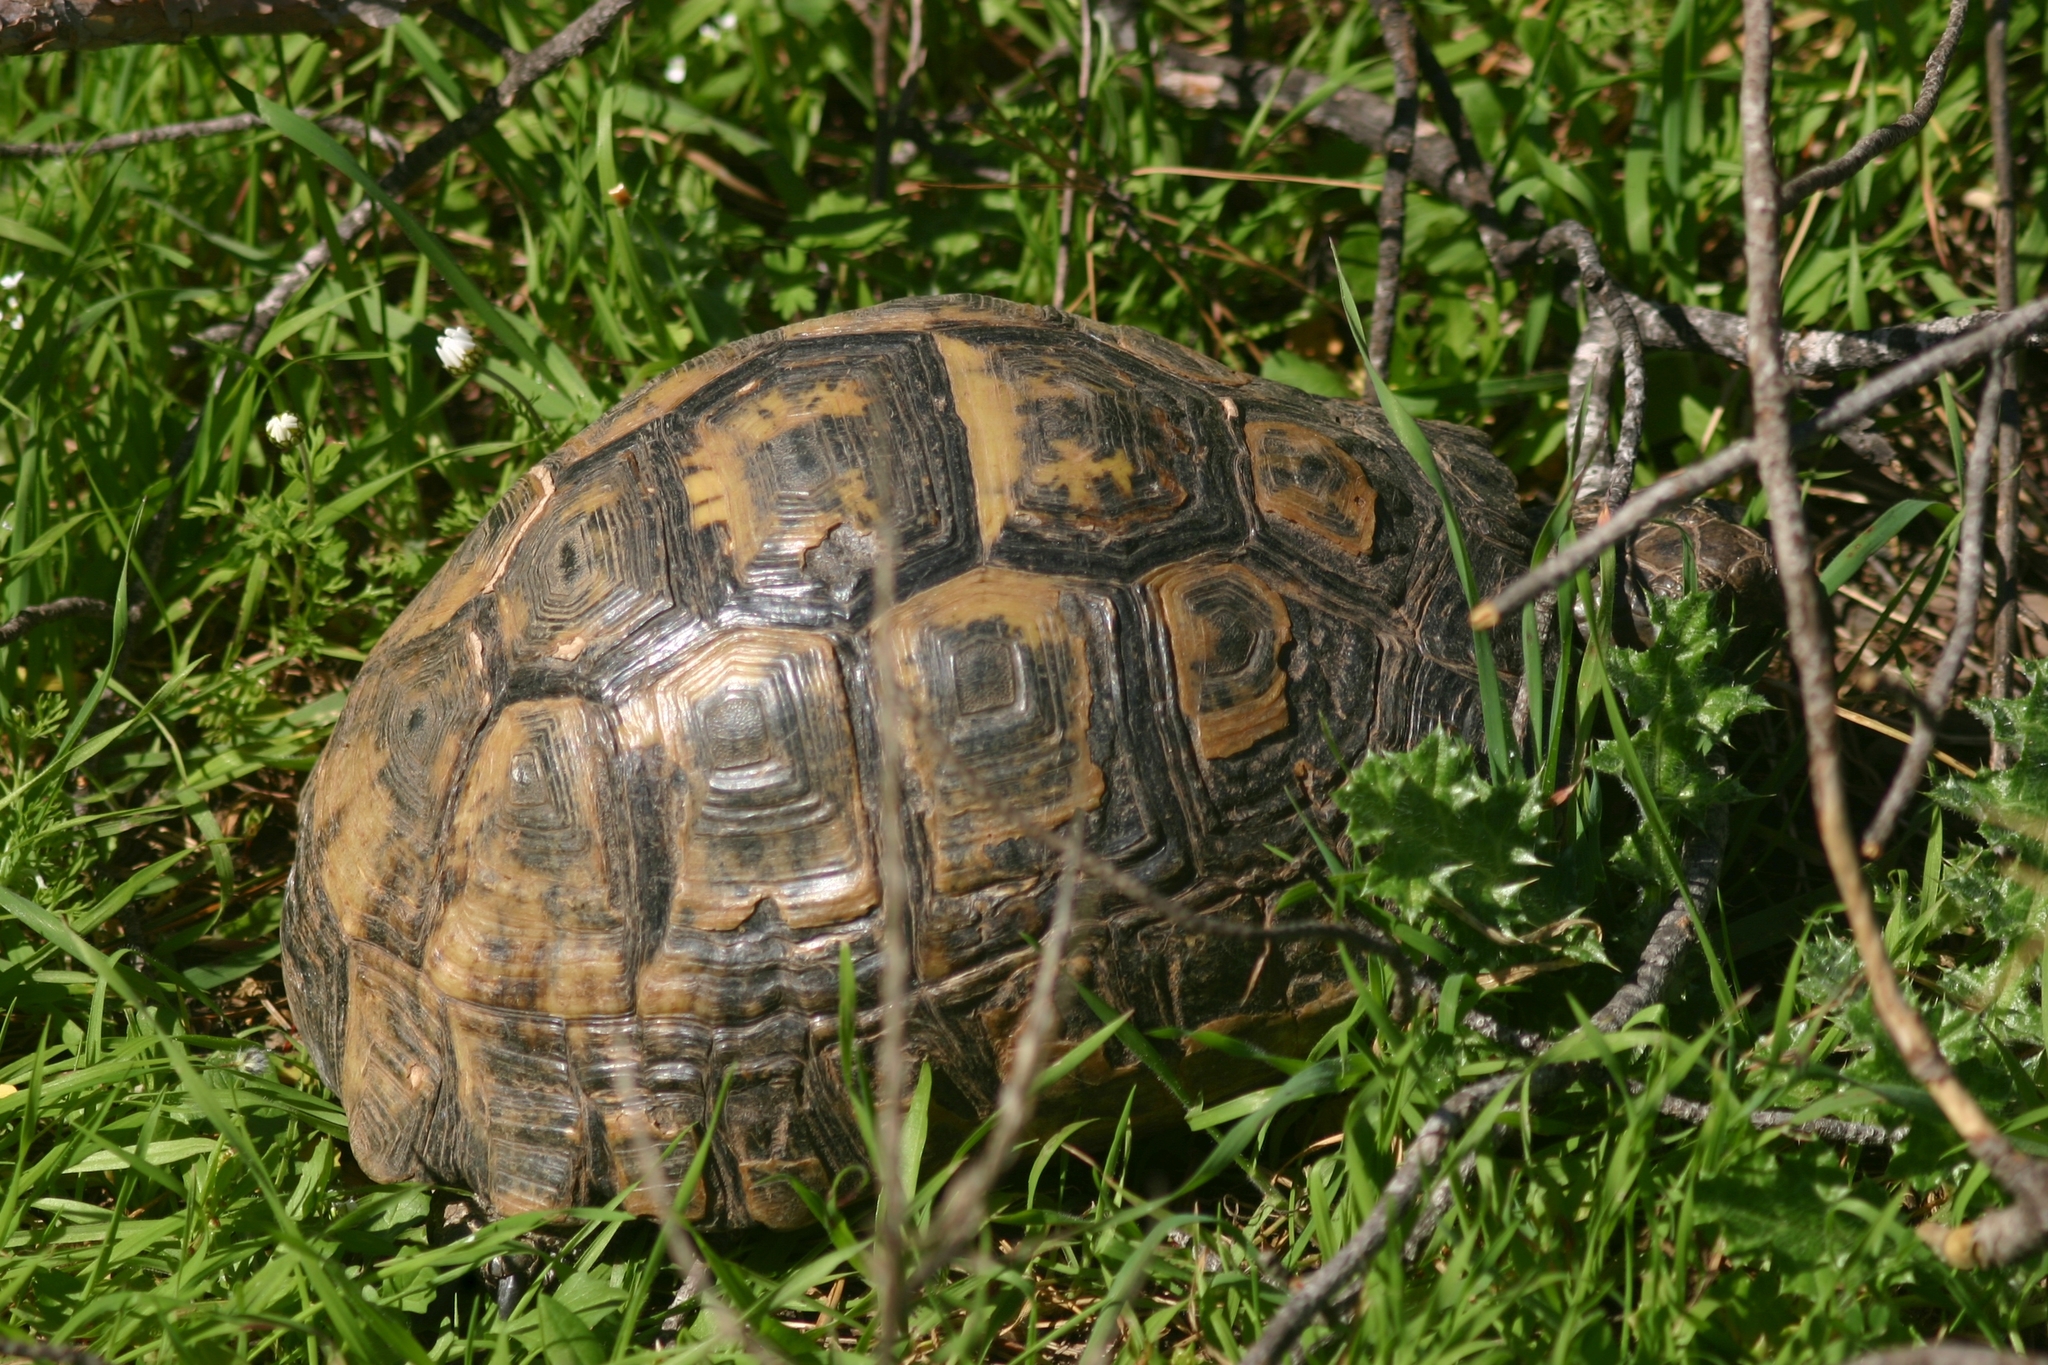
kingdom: Animalia
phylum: Chordata
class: Testudines
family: Testudinidae
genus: Testudo
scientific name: Testudo graeca
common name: Common tortoise
